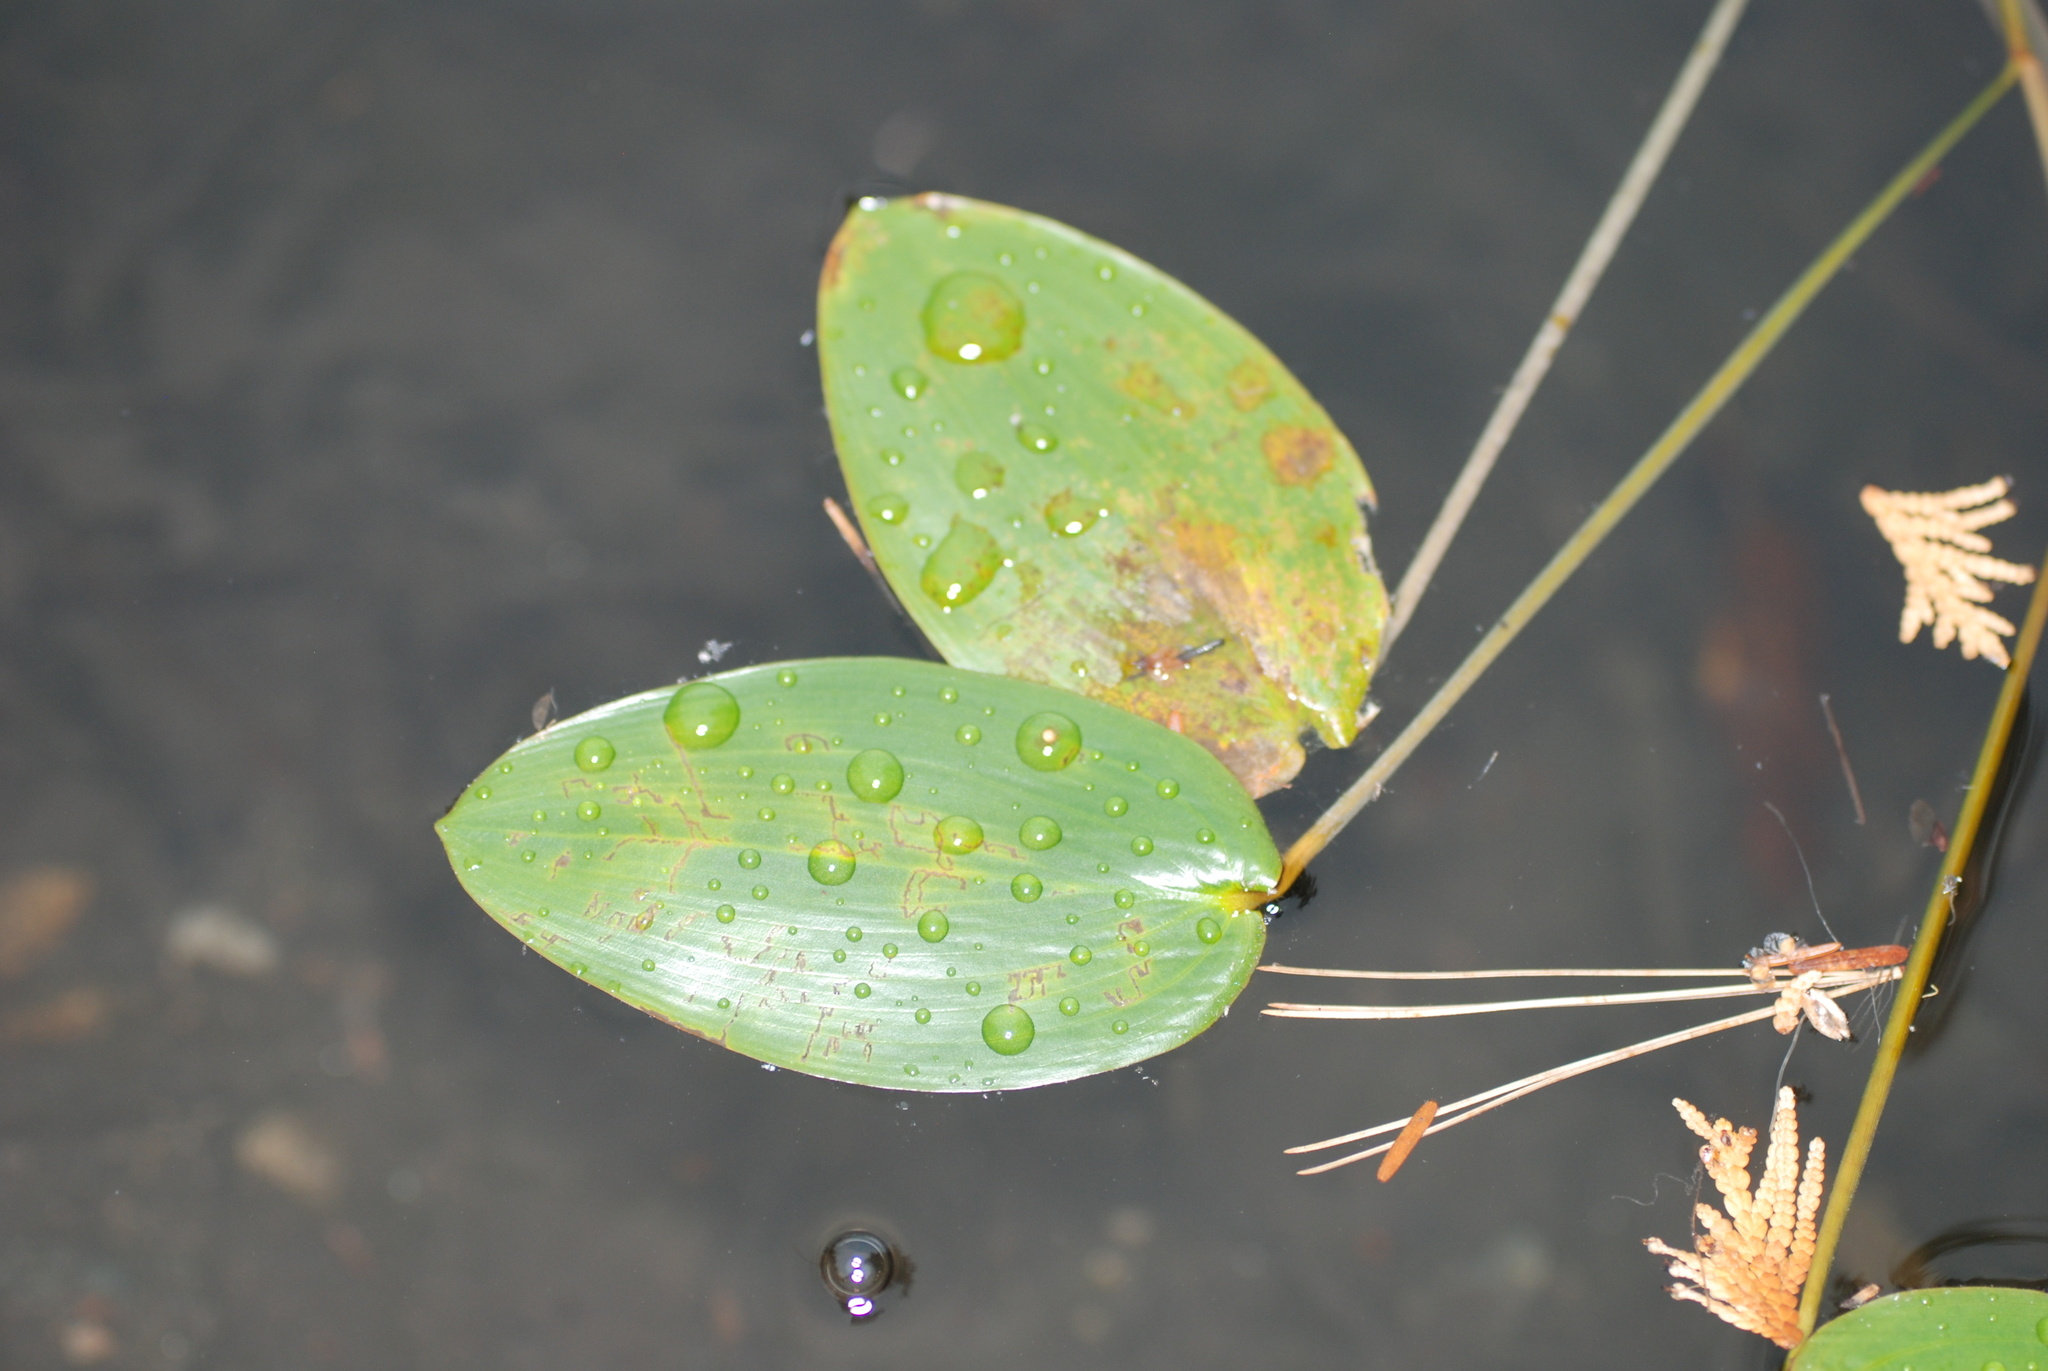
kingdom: Plantae
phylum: Tracheophyta
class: Liliopsida
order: Alismatales
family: Potamogetonaceae
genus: Potamogeton
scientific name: Potamogeton natans
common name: Broad-leaved pondweed
